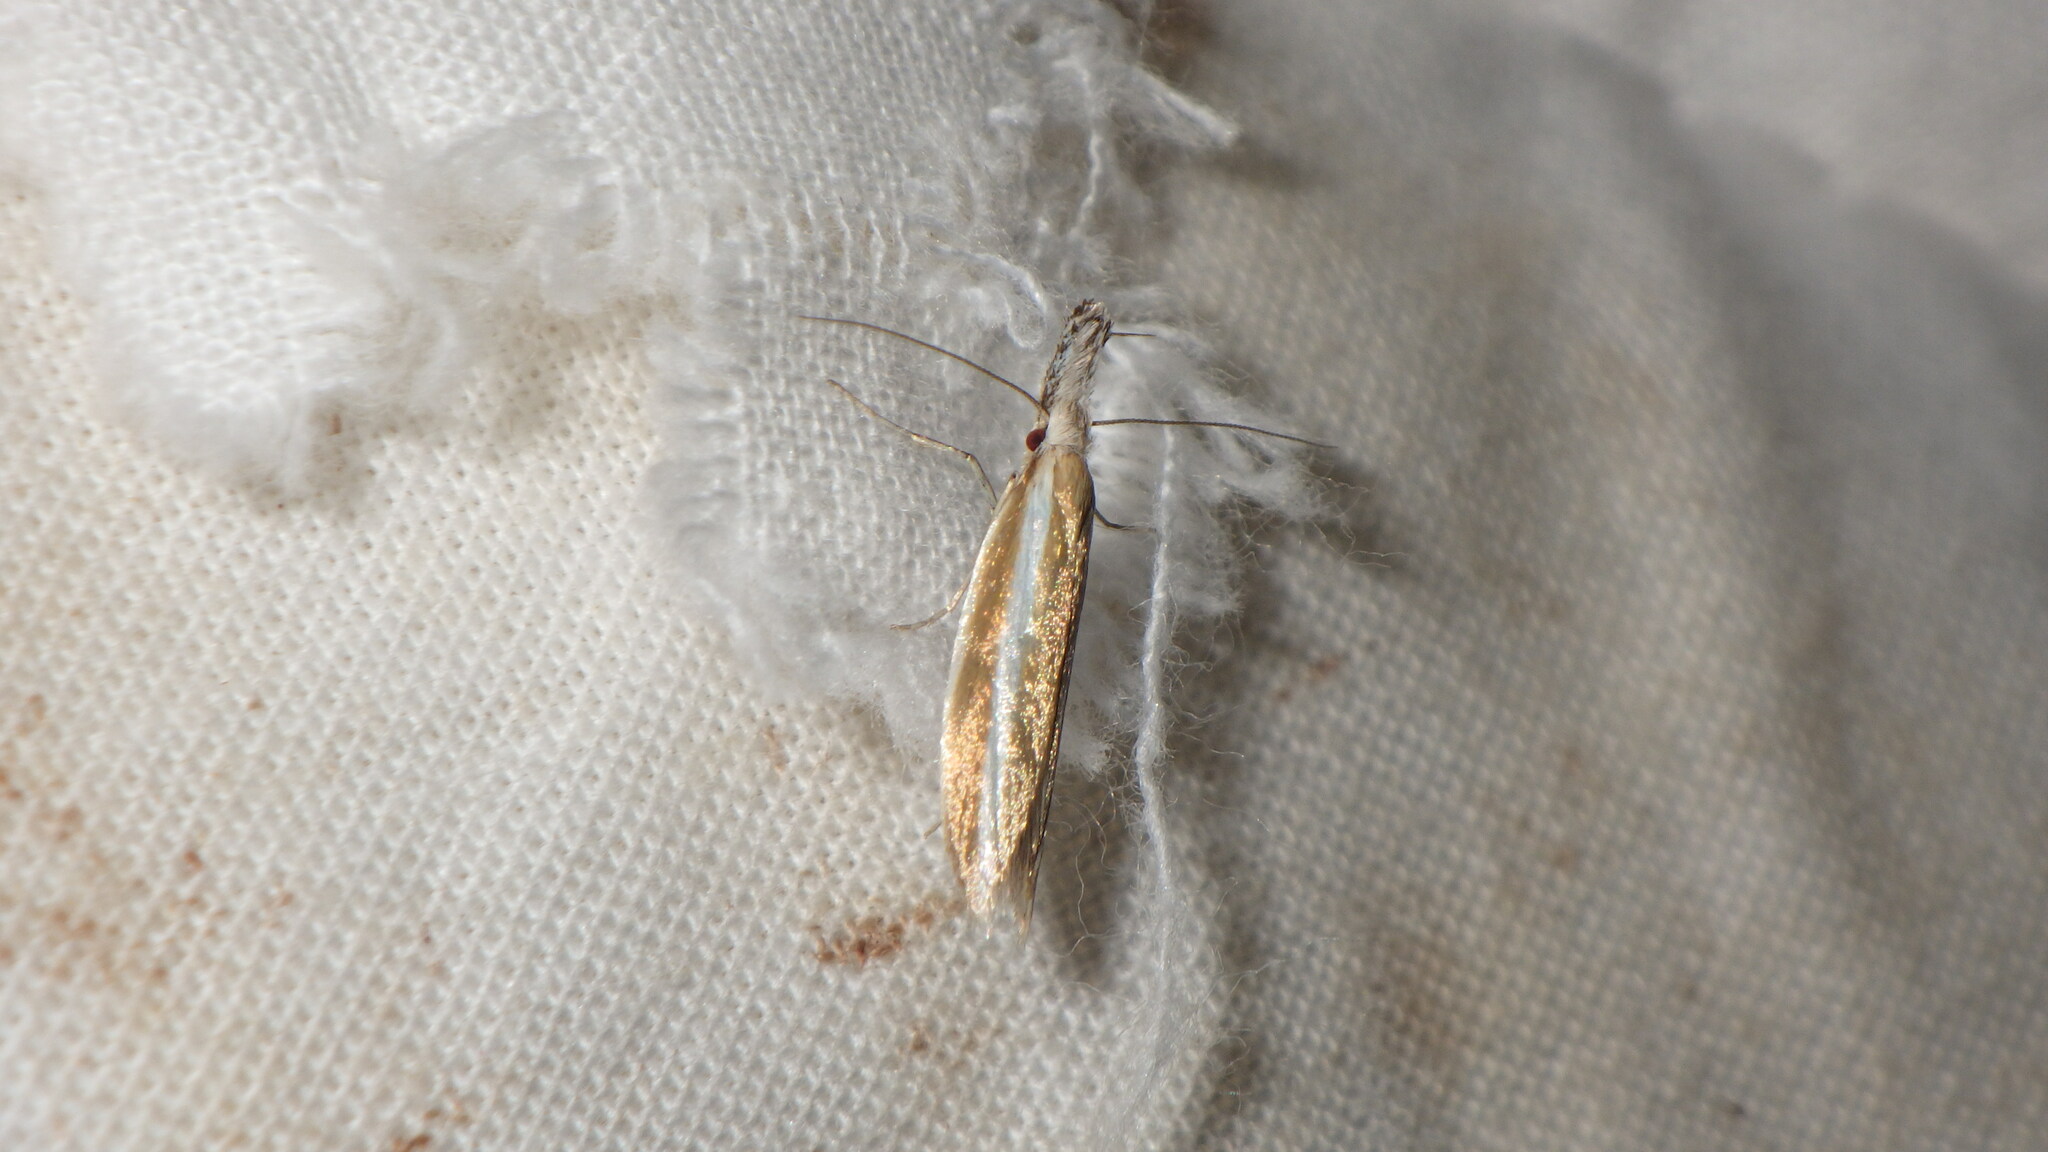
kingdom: Animalia
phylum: Arthropoda
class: Insecta
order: Lepidoptera
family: Oecophoridae
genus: Pleurota
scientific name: Pleurota aristella
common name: Southern streak
